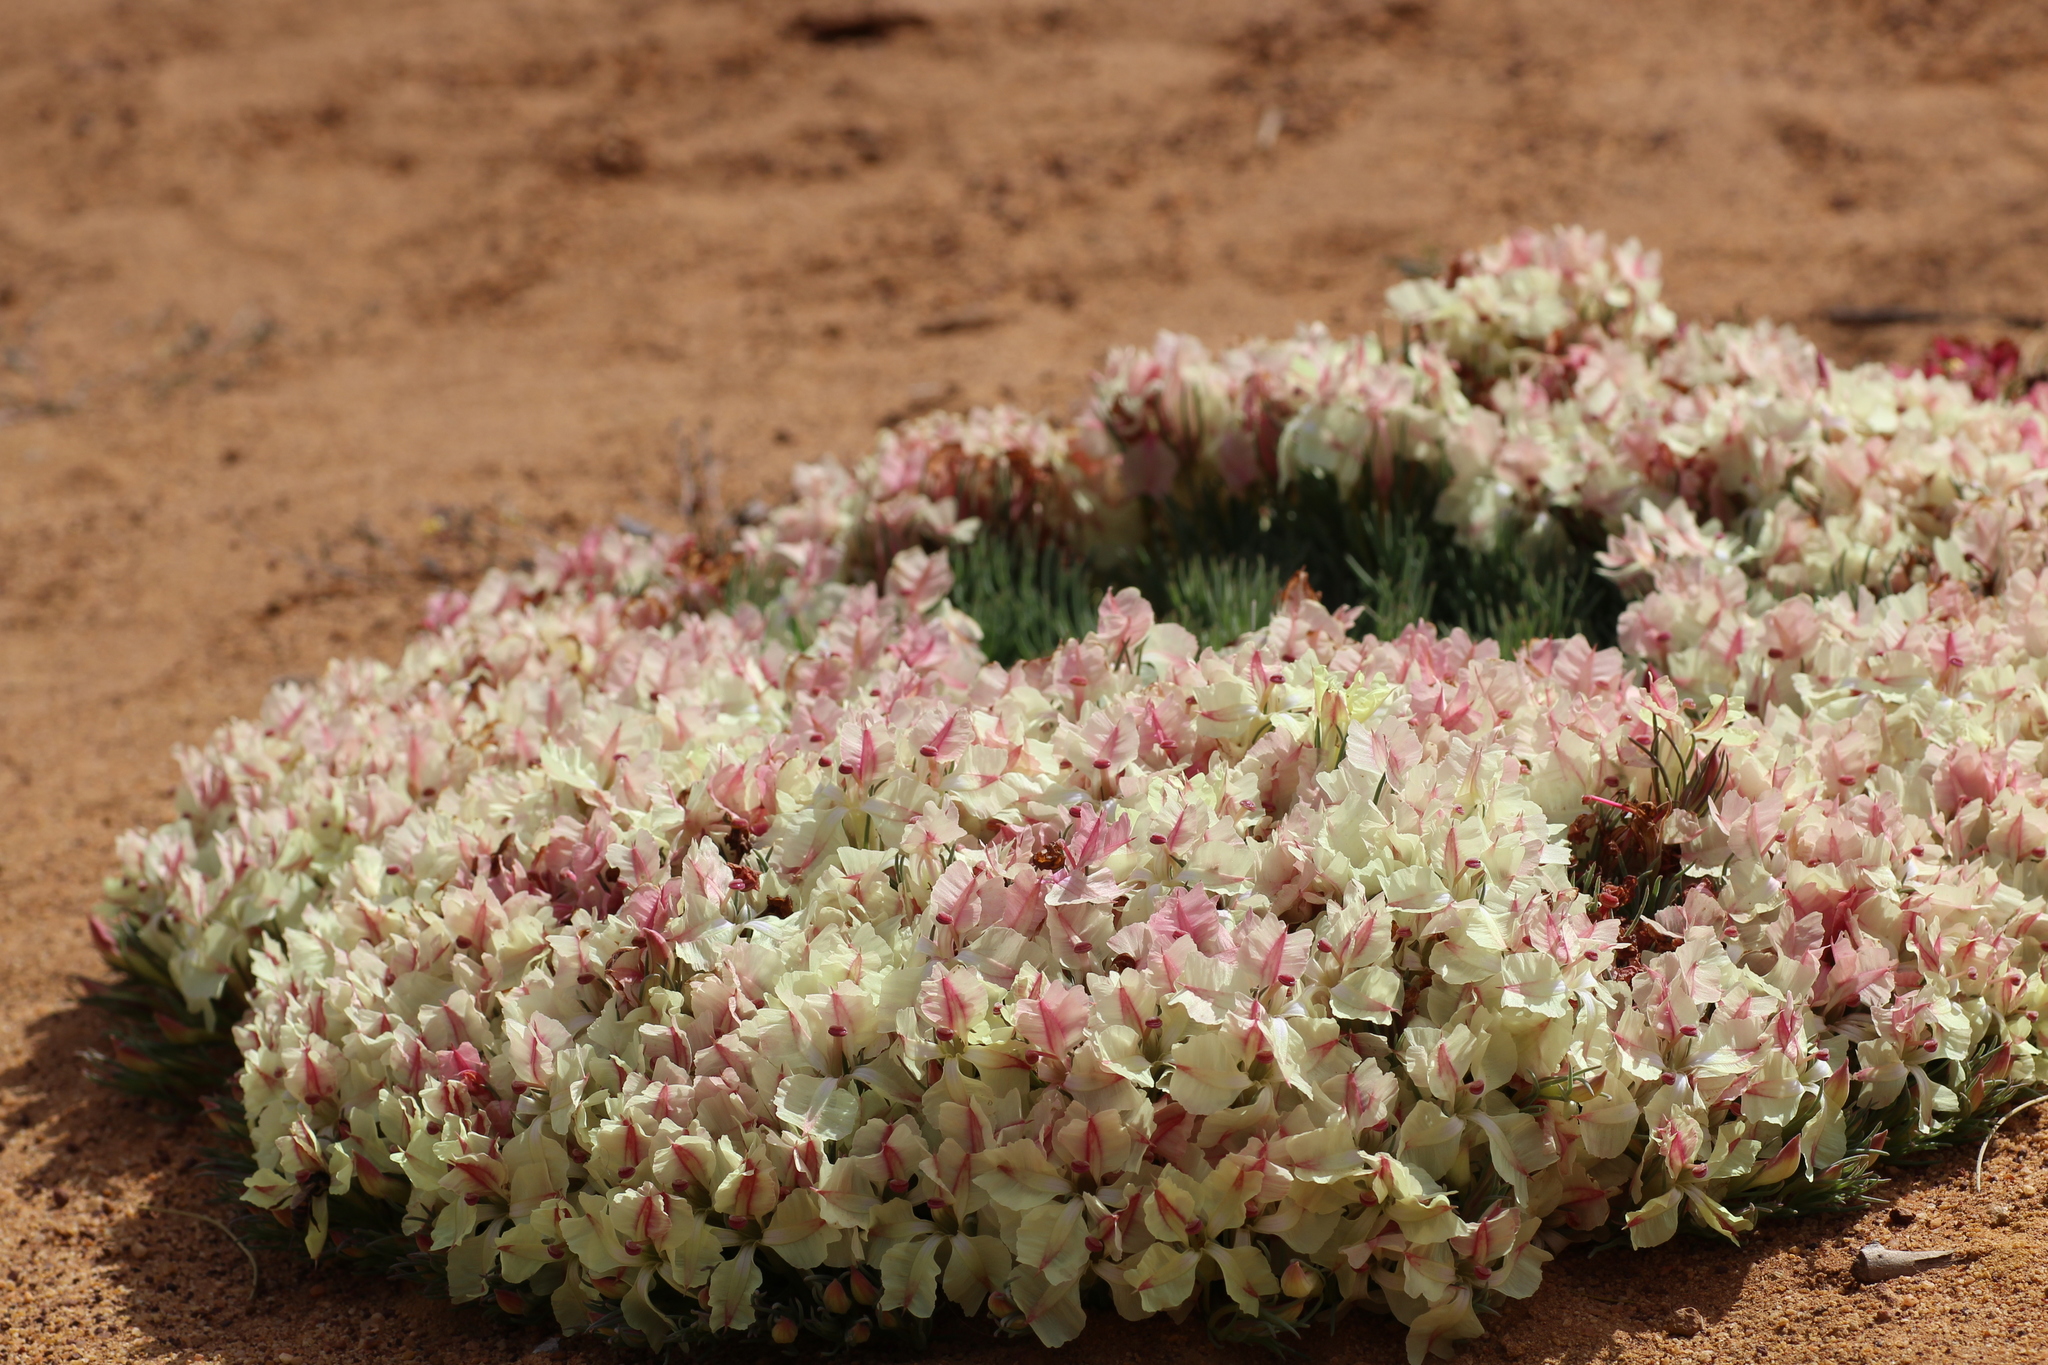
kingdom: Plantae
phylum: Tracheophyta
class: Magnoliopsida
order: Asterales
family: Goodeniaceae
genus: Lechenaultia
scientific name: Lechenaultia macrantha
